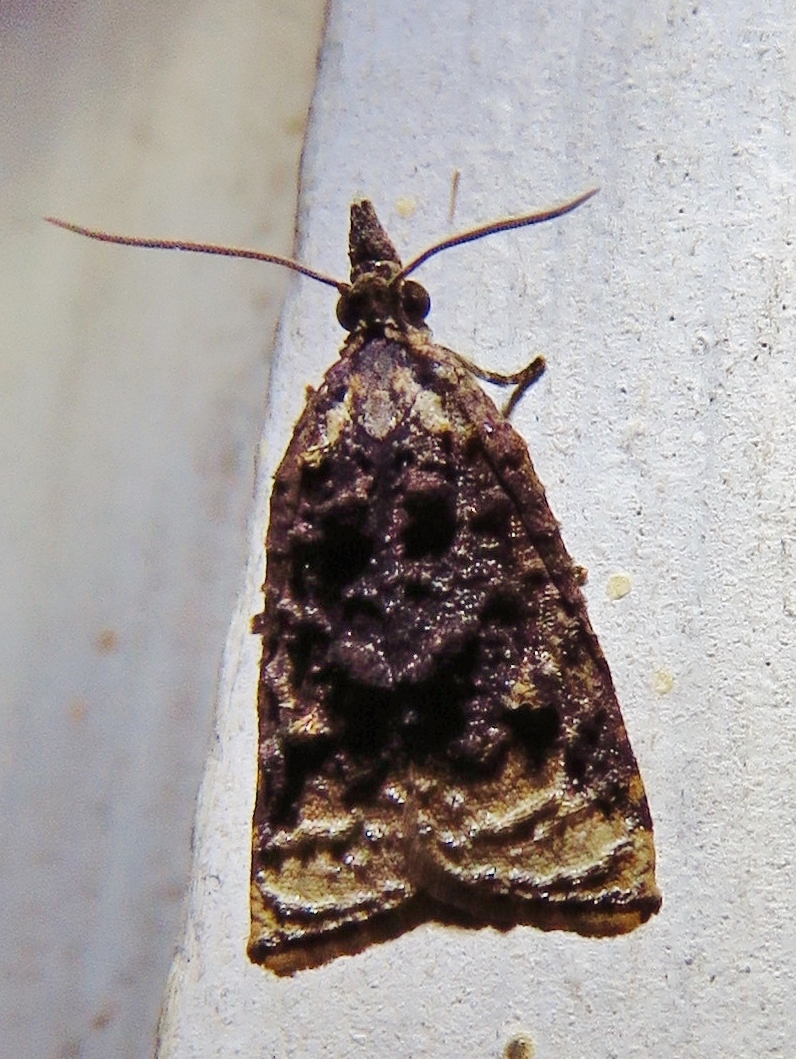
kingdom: Animalia
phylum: Arthropoda
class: Insecta
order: Lepidoptera
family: Tortricidae
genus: Platynota
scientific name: Platynota flavedana
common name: Black-shaded platynota moth
